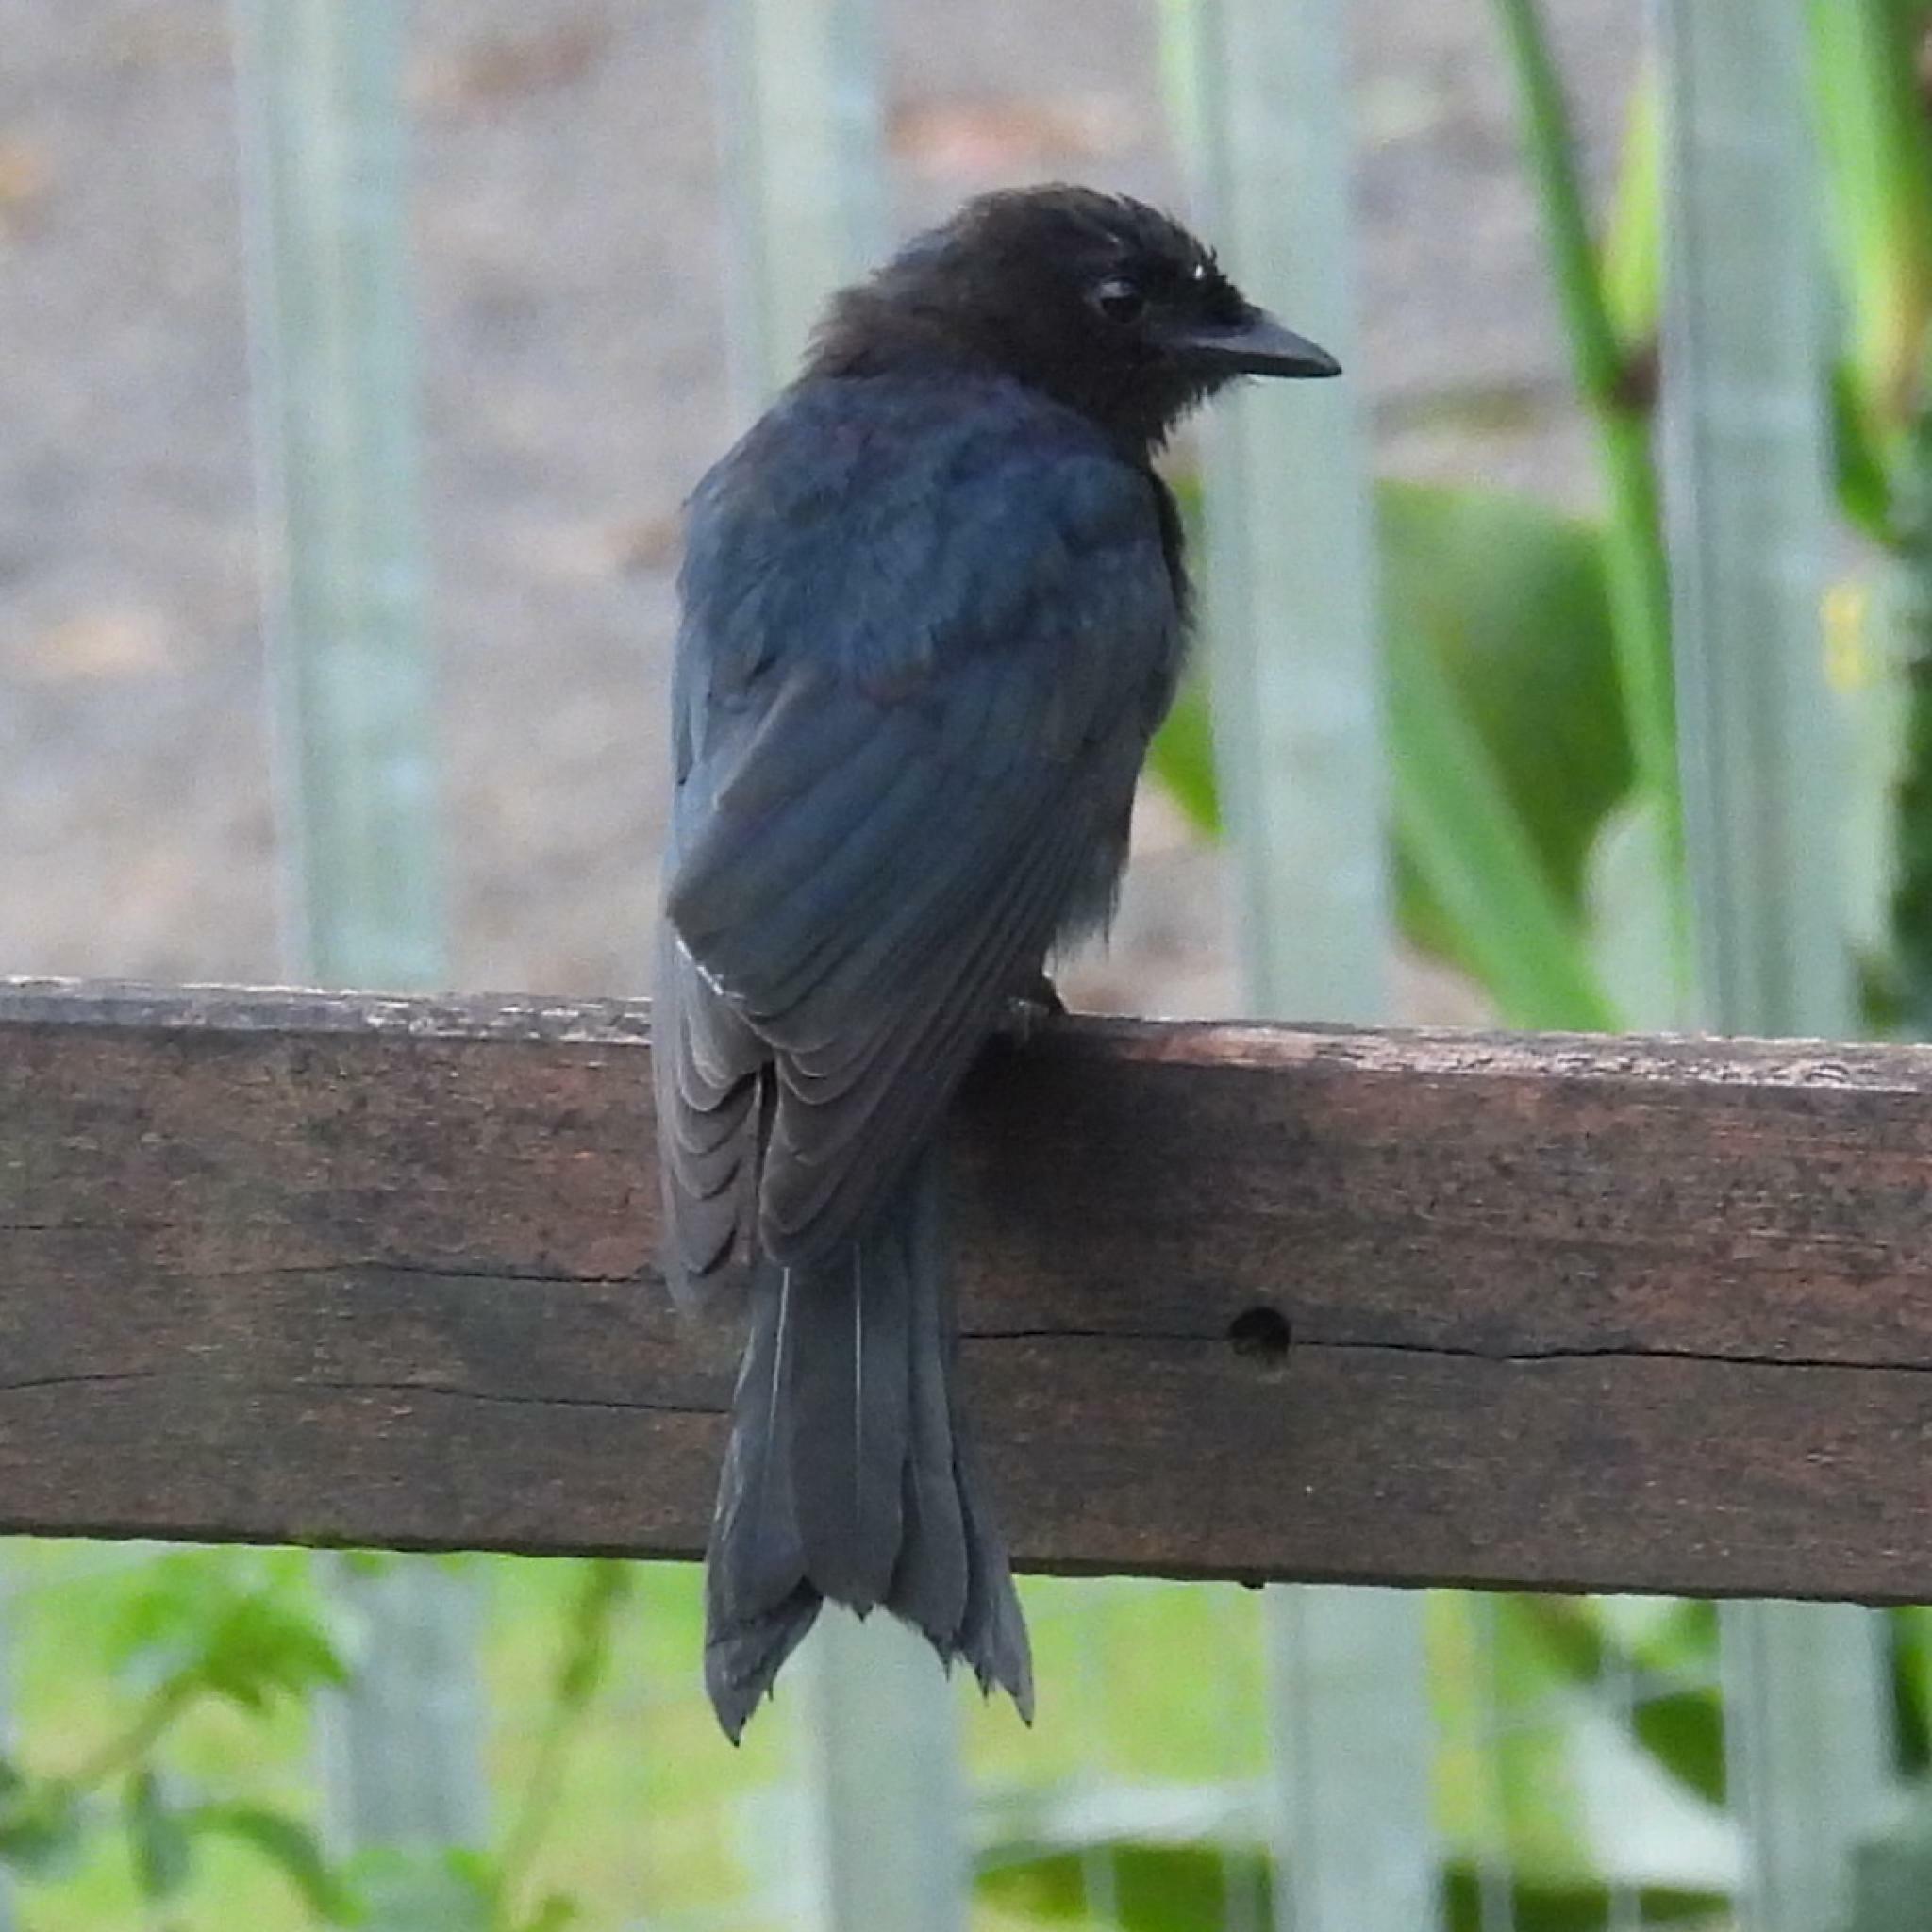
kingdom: Animalia
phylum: Chordata
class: Aves
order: Passeriformes
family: Dicruridae
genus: Dicrurus
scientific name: Dicrurus adsimilis
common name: Fork-tailed drongo
